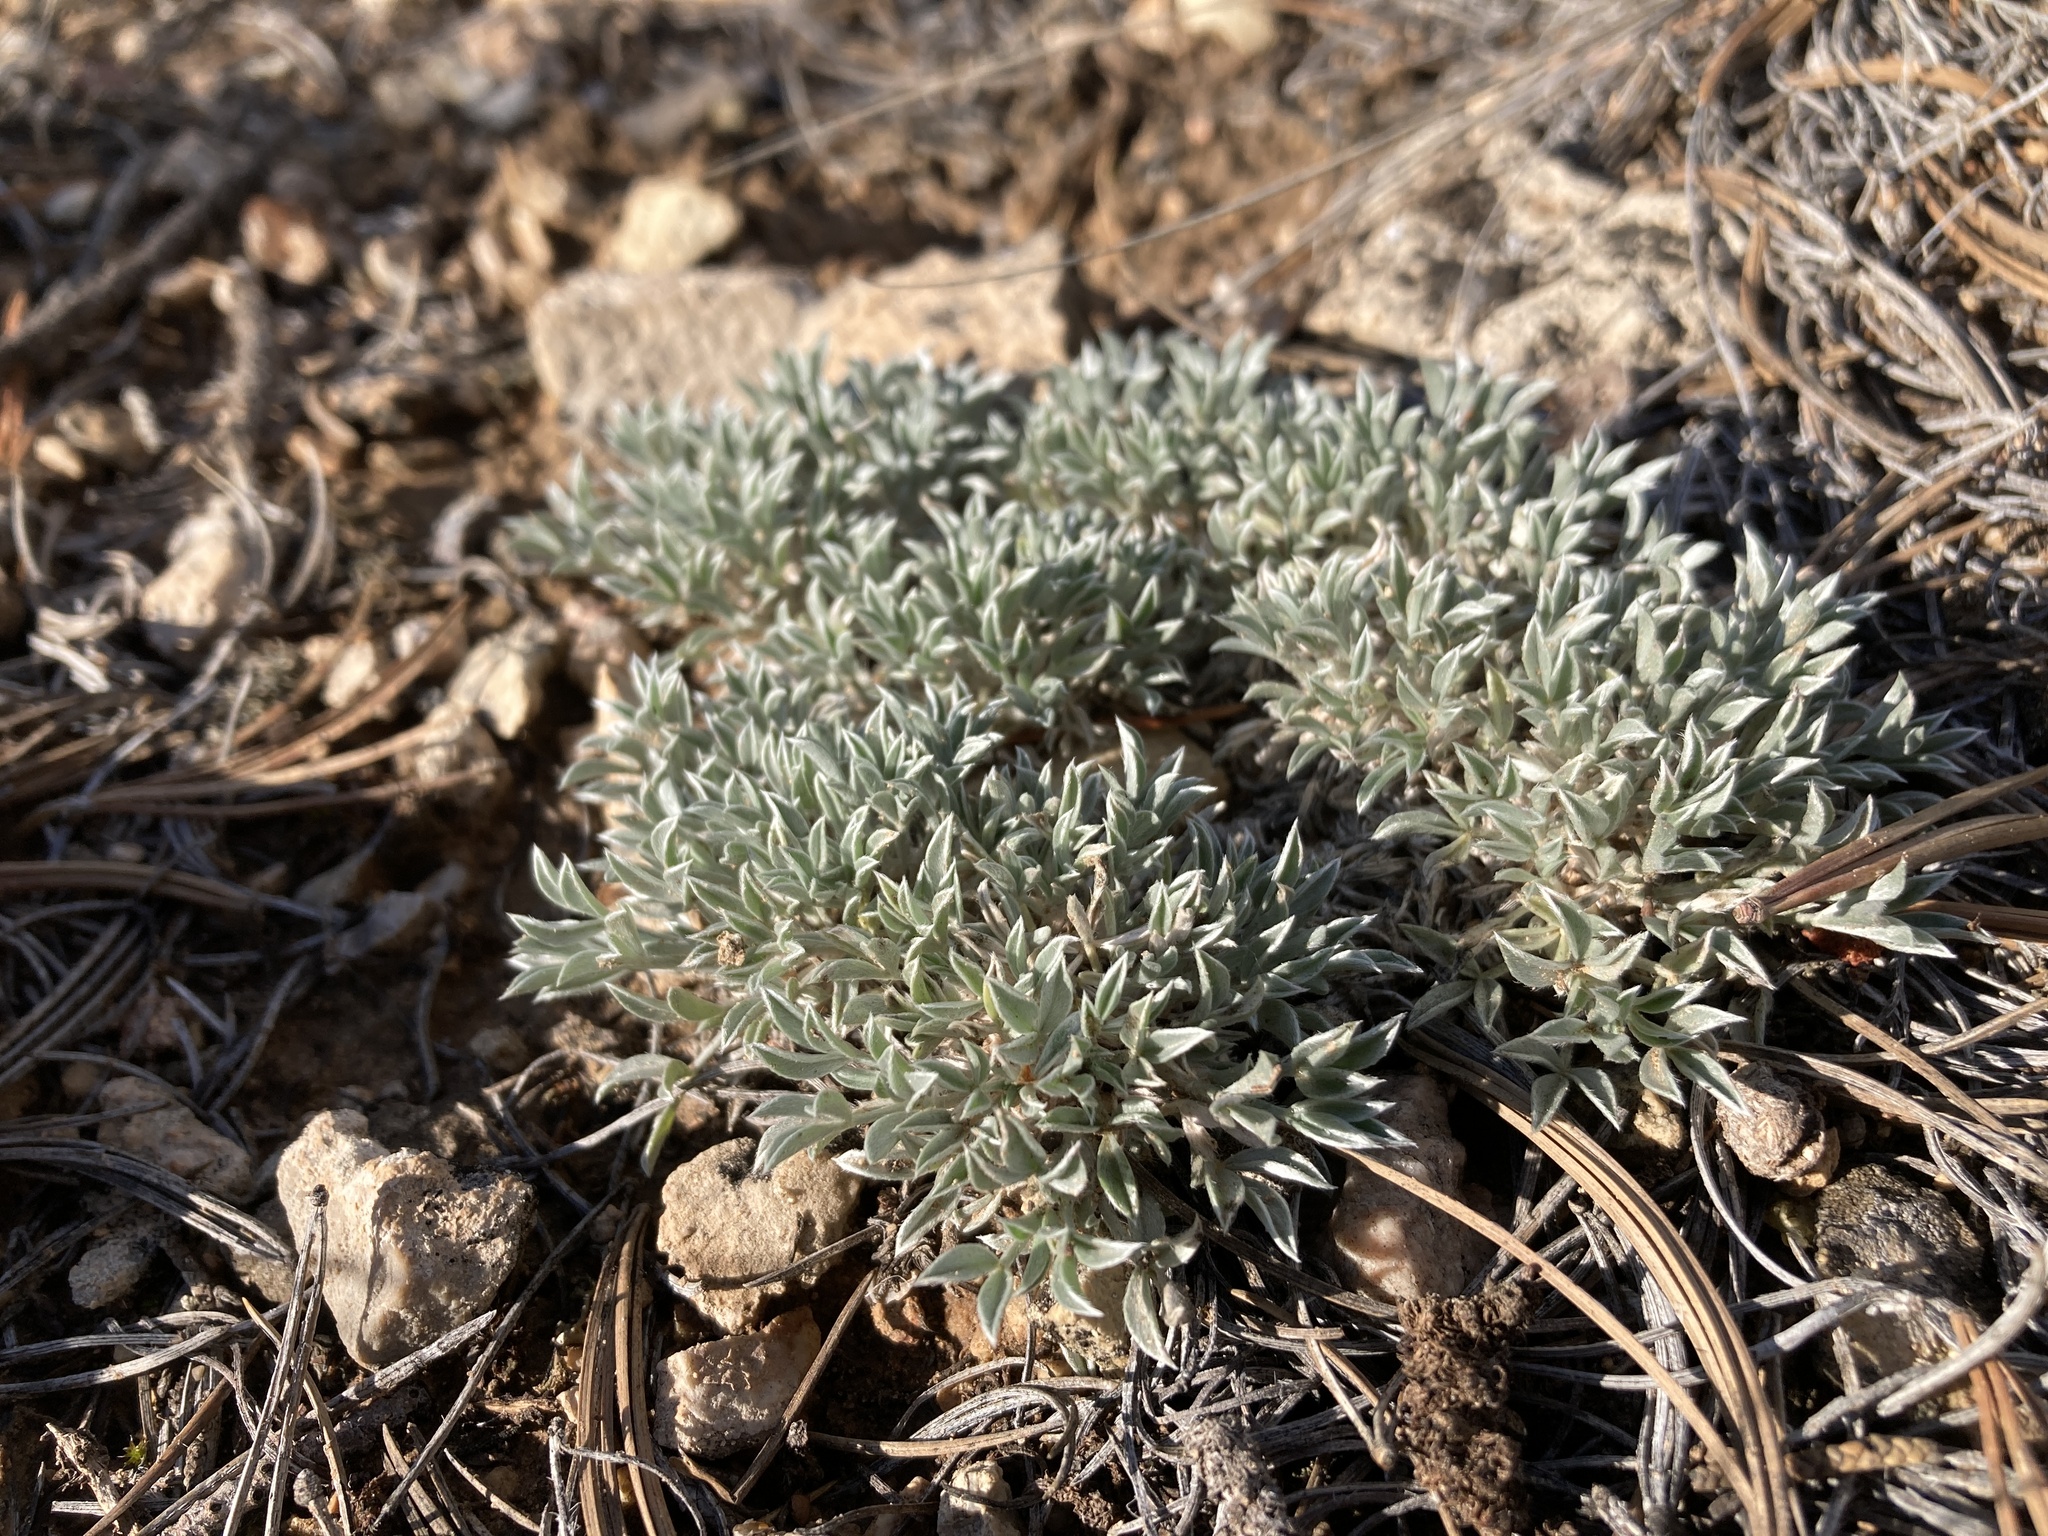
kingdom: Plantae
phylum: Tracheophyta
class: Magnoliopsida
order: Fabales
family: Fabaceae
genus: Astragalus
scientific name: Astragalus hyalinus
